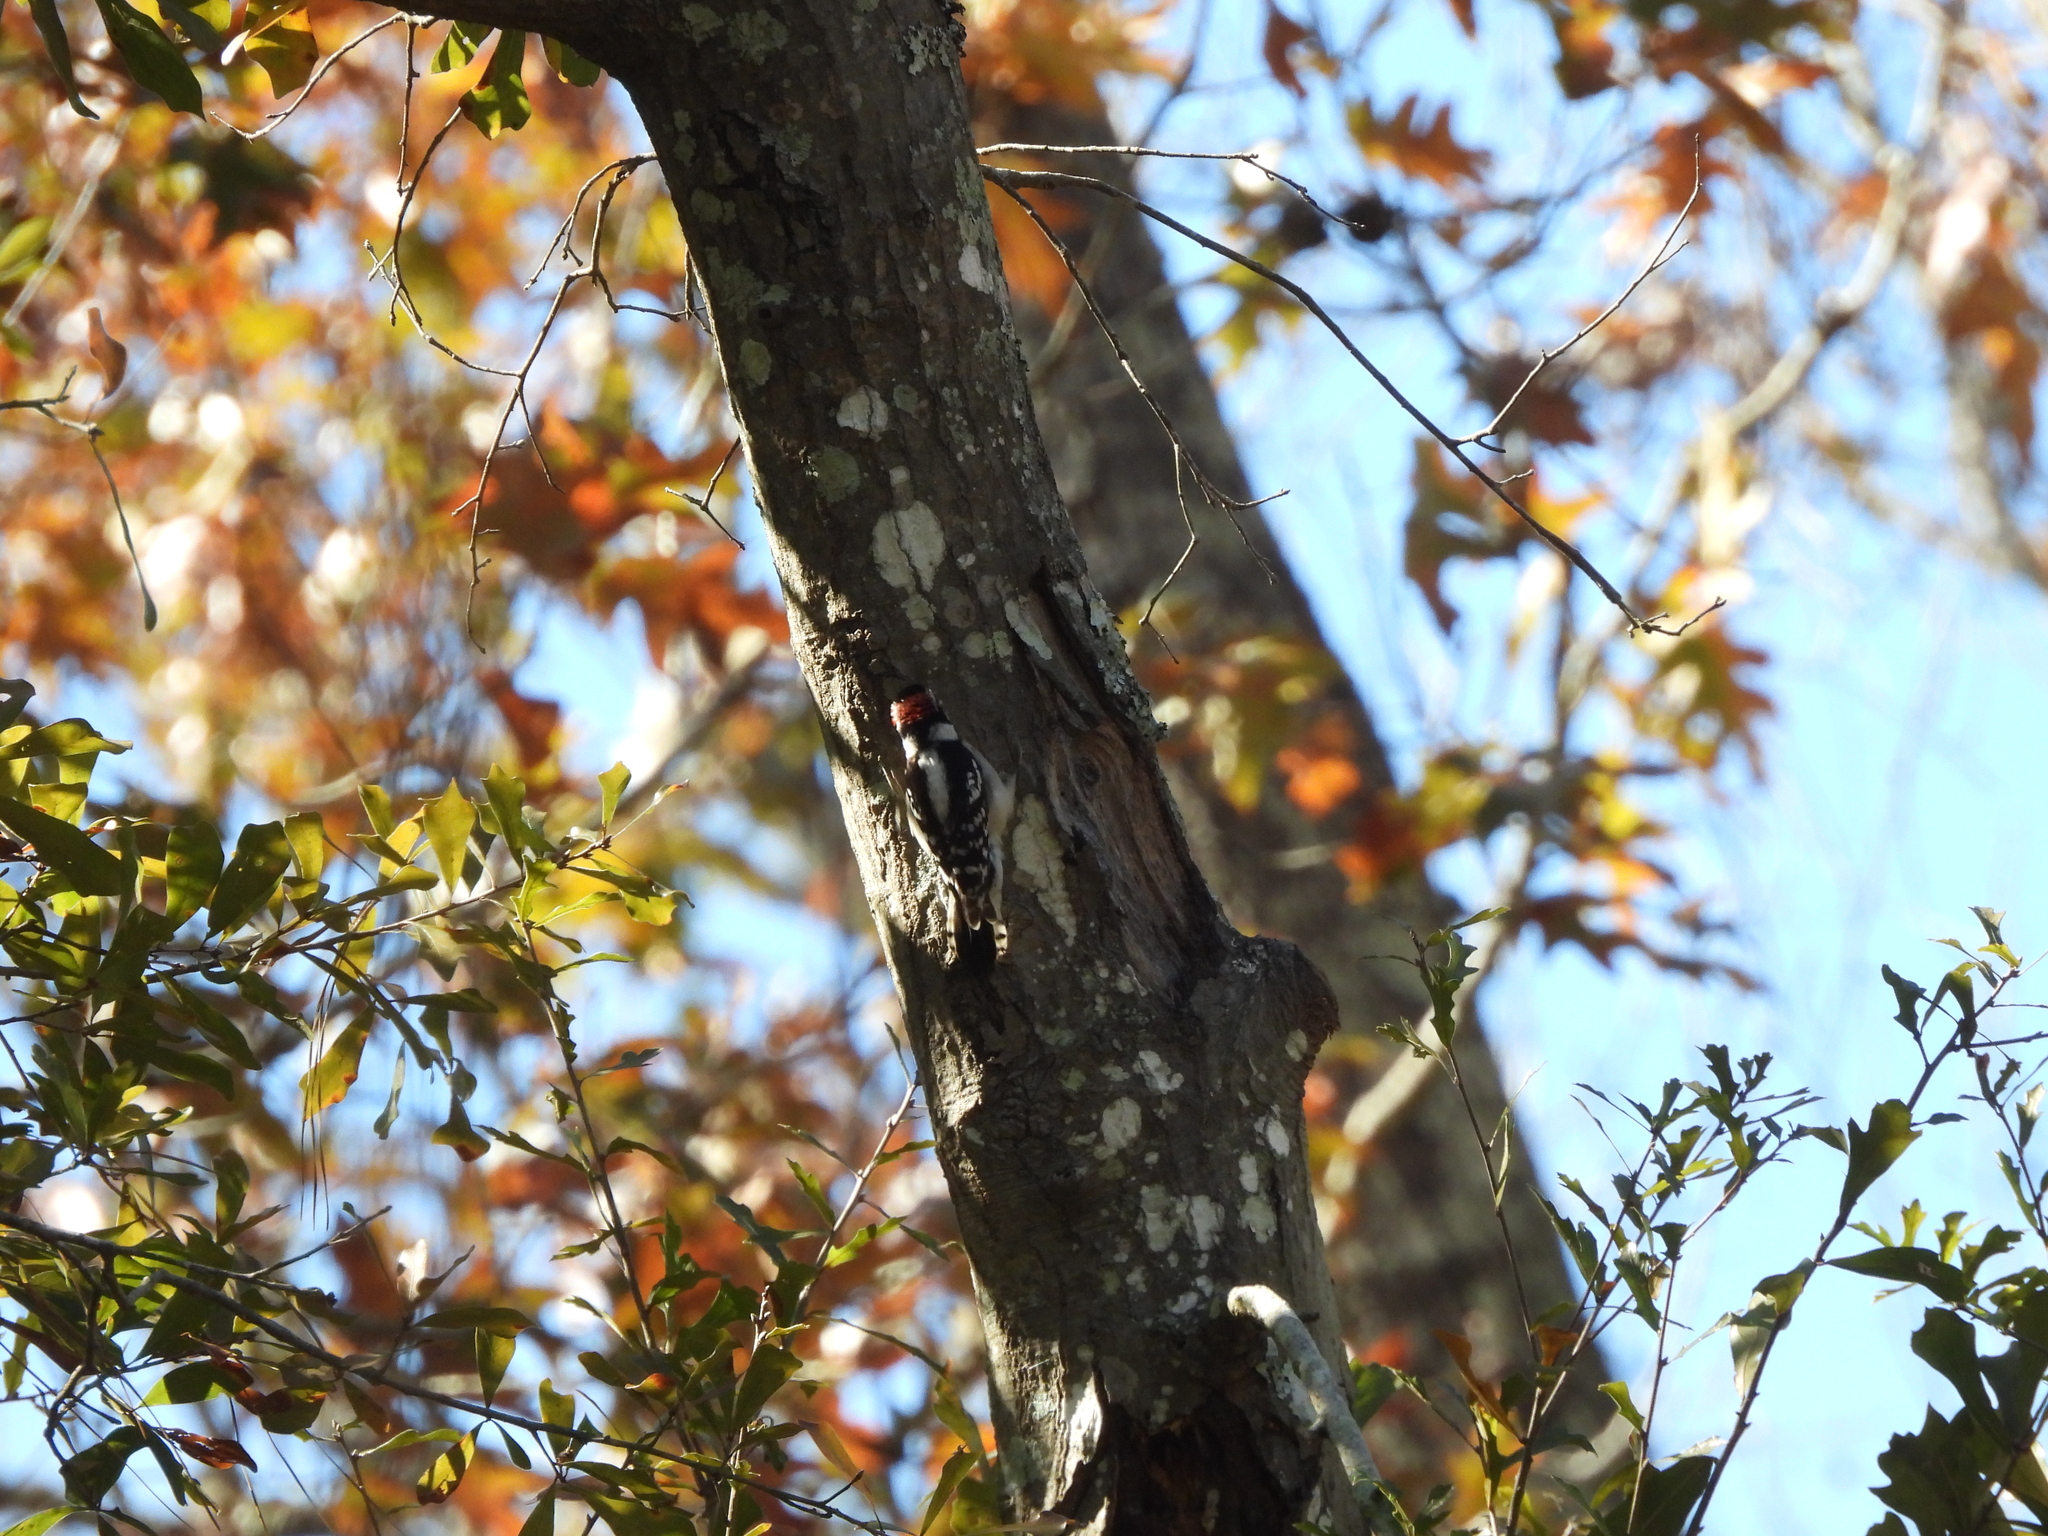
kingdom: Animalia
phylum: Chordata
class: Aves
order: Piciformes
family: Picidae
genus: Dryobates
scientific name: Dryobates pubescens
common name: Downy woodpecker
